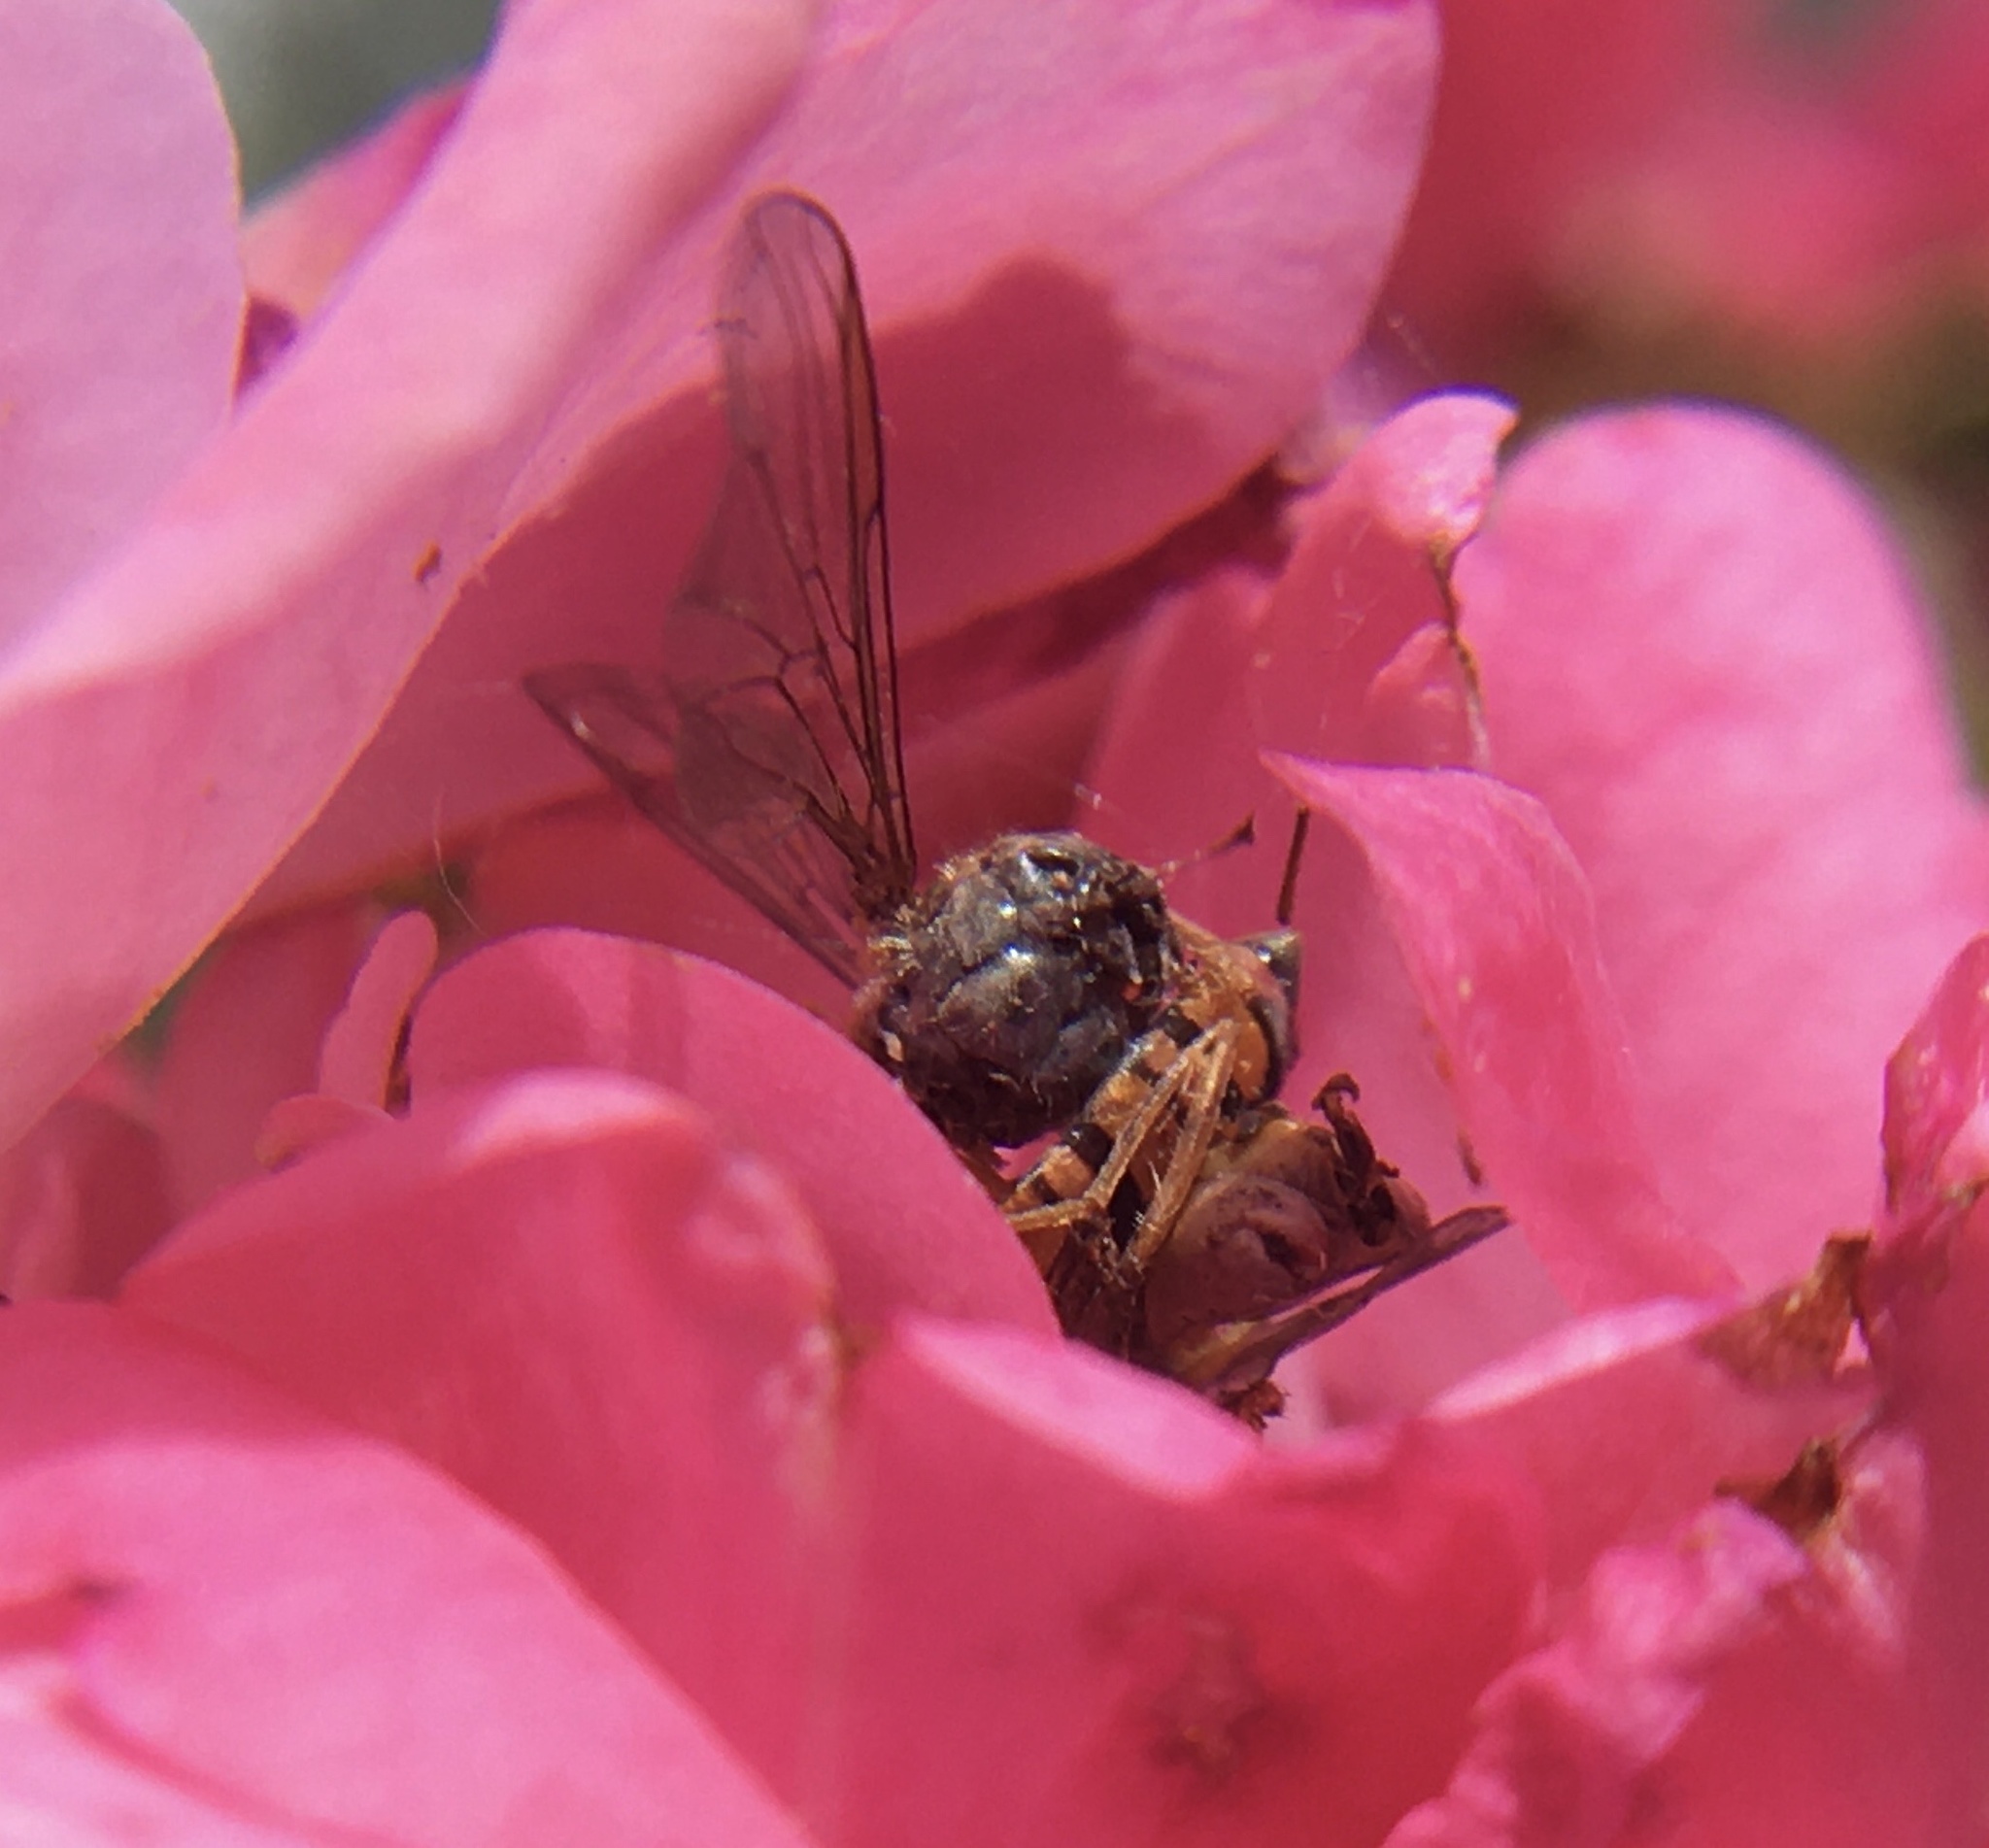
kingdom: Animalia
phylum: Arthropoda
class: Insecta
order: Diptera
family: Syrphidae
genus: Episyrphus
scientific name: Episyrphus balteatus
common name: Marmalade hoverfly
